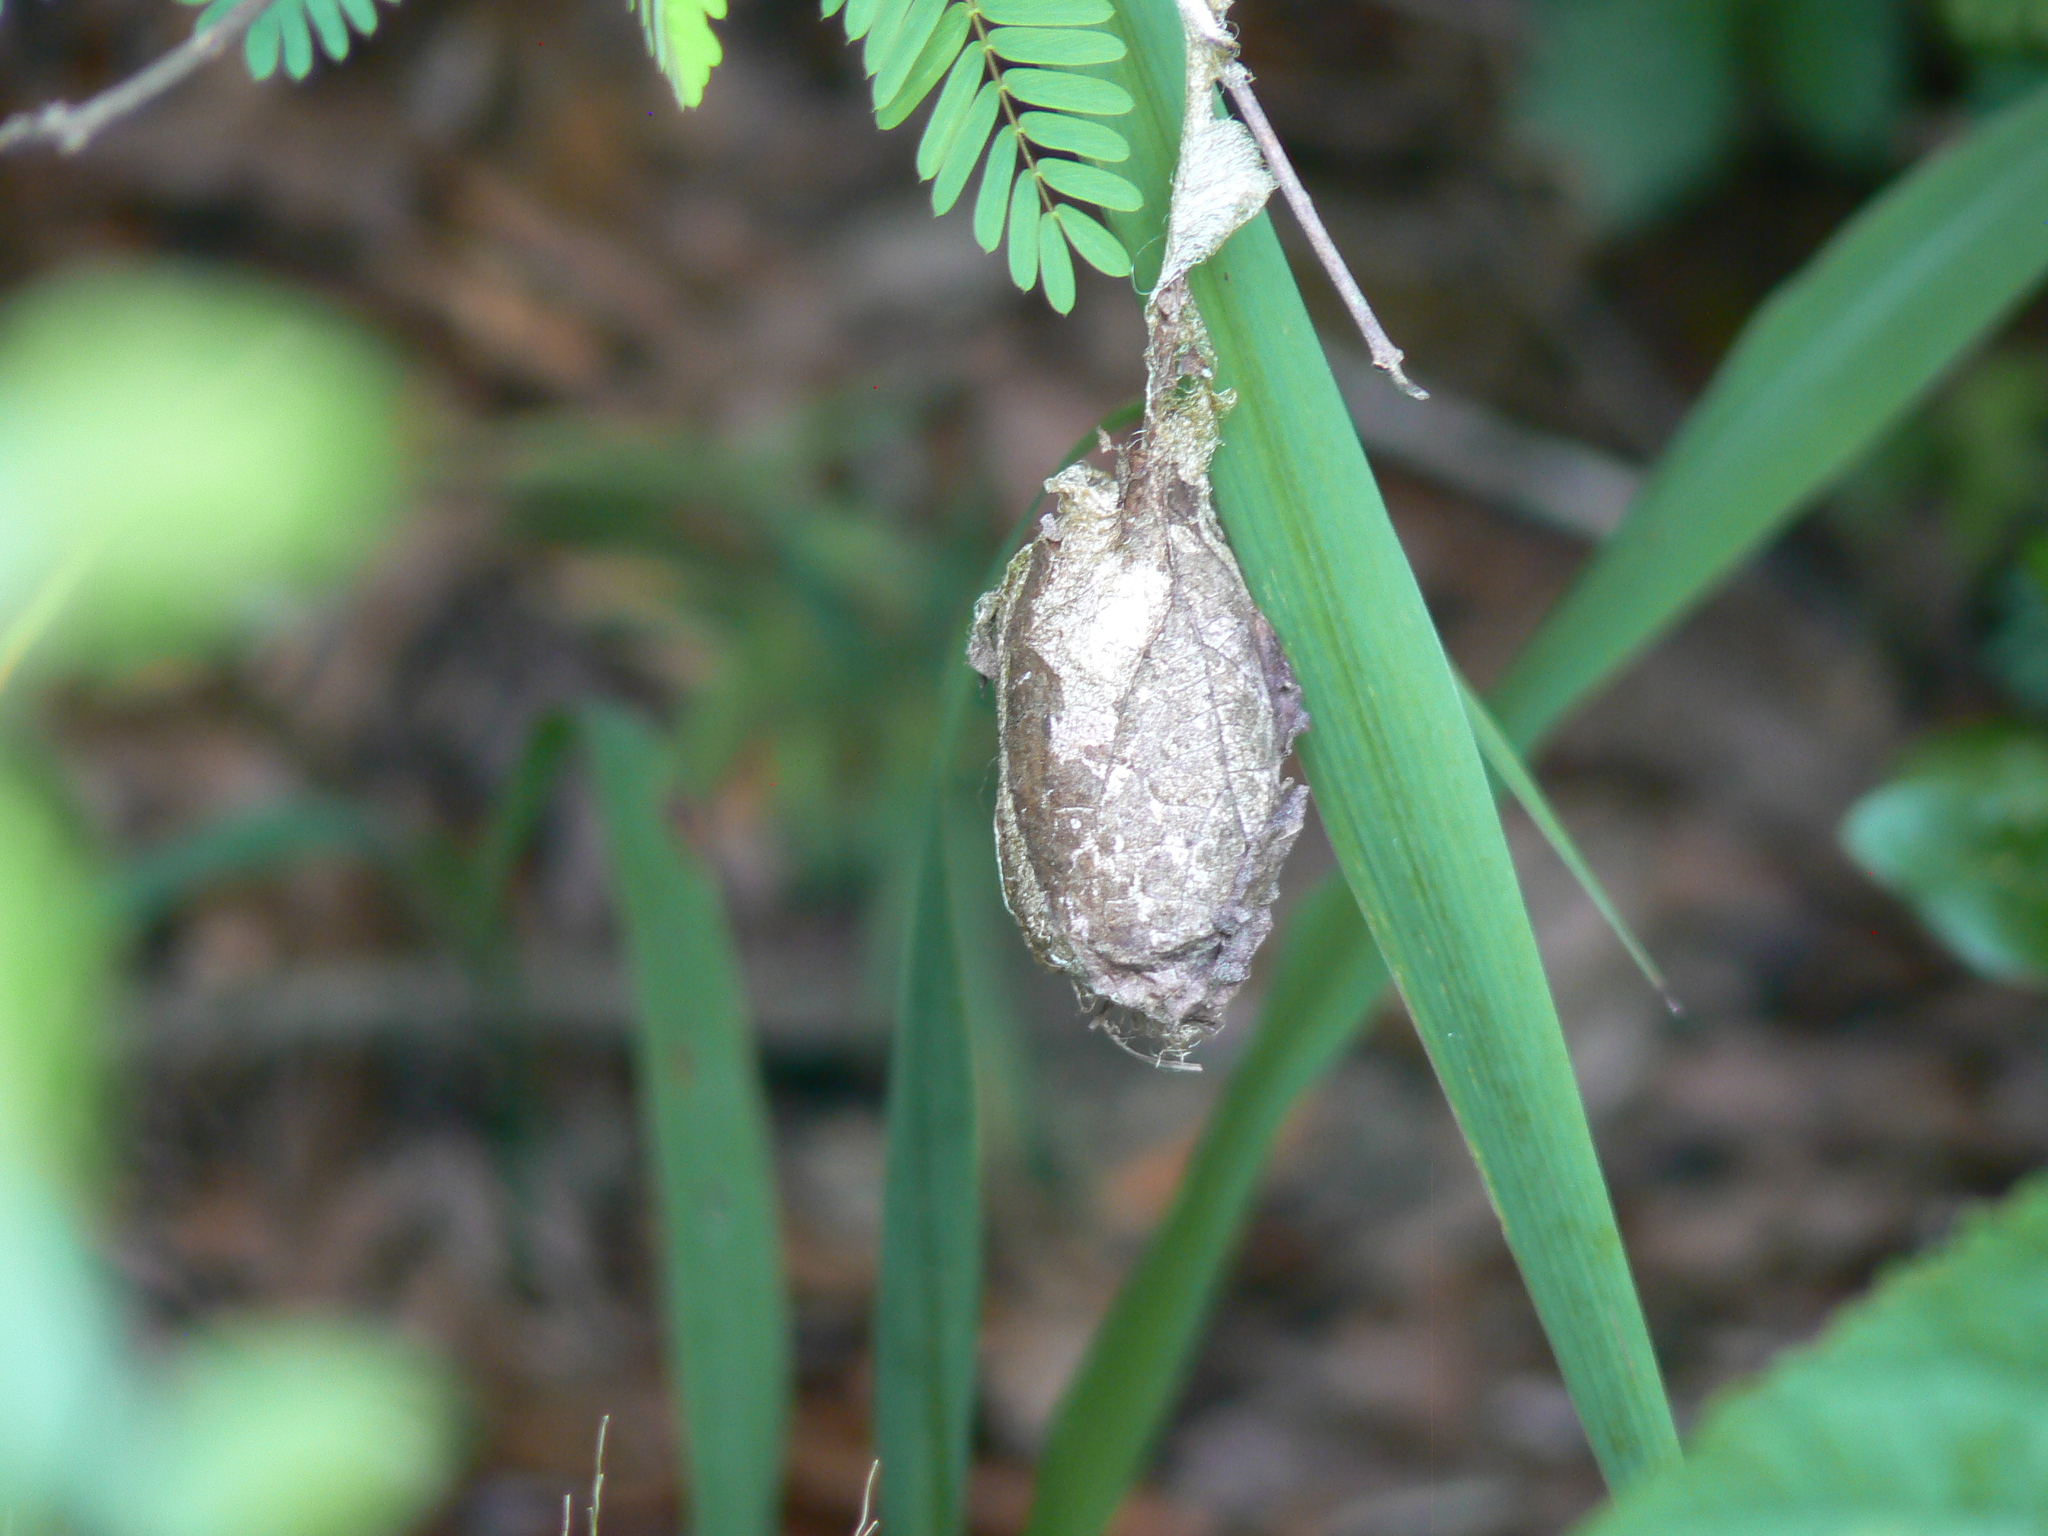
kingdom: Animalia
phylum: Arthropoda
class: Insecta
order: Lepidoptera
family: Saturniidae
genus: Antheraea
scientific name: Antheraea polyphemus
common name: Polyphemus moth
